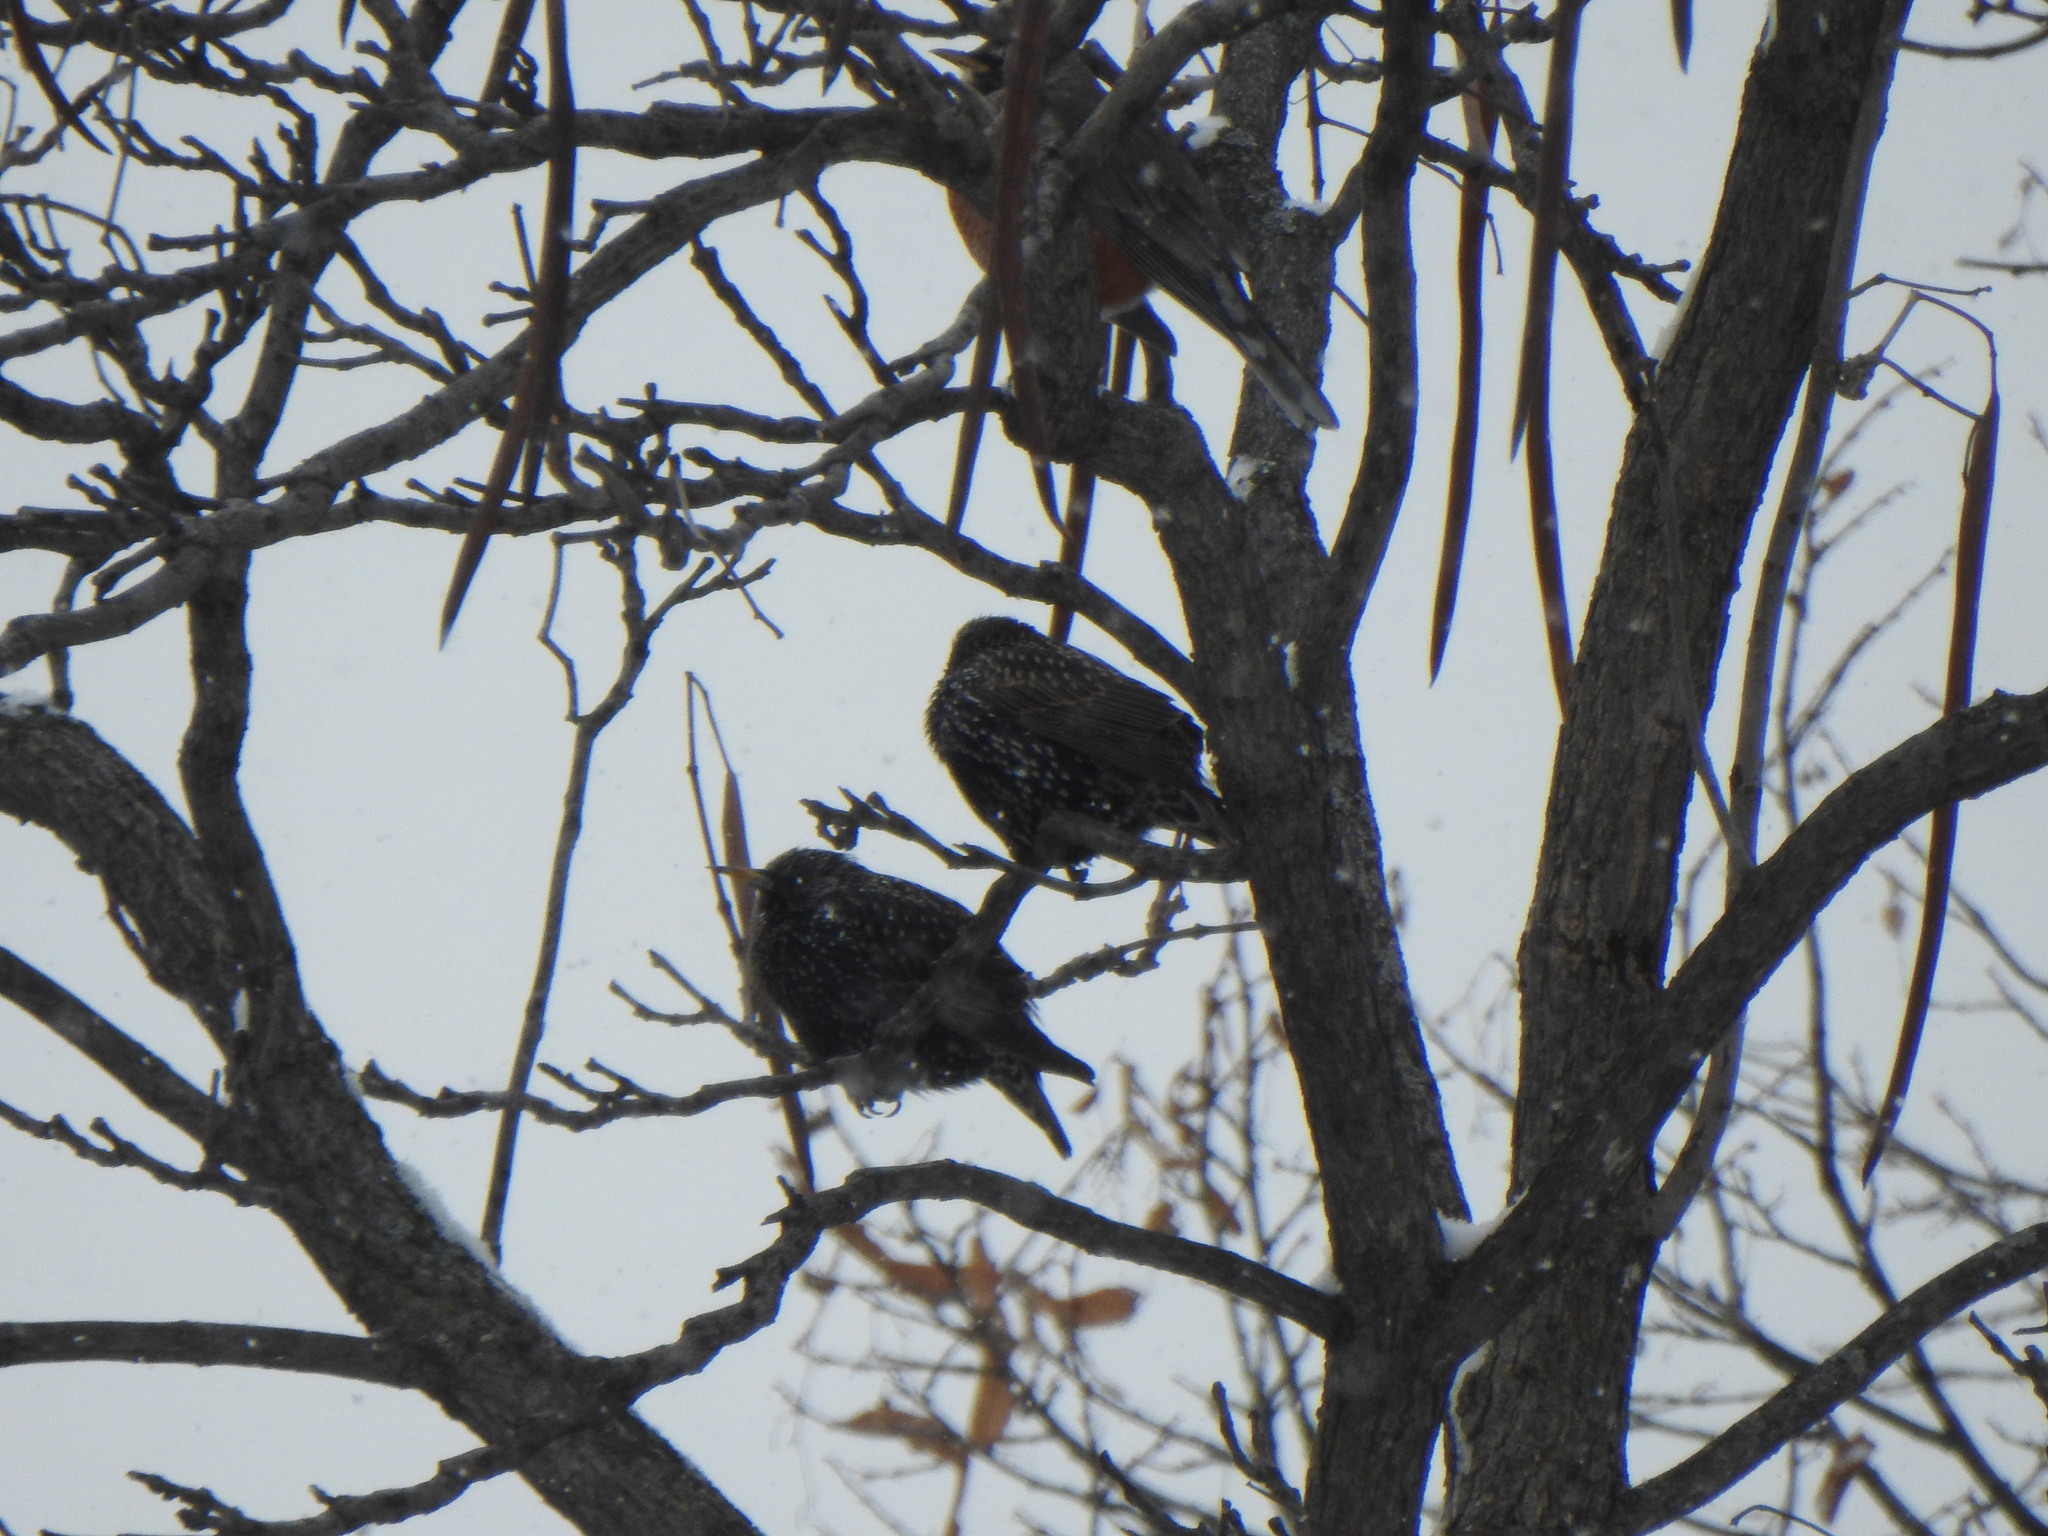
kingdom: Animalia
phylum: Chordata
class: Aves
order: Passeriformes
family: Sturnidae
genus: Sturnus
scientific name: Sturnus vulgaris
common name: Common starling
